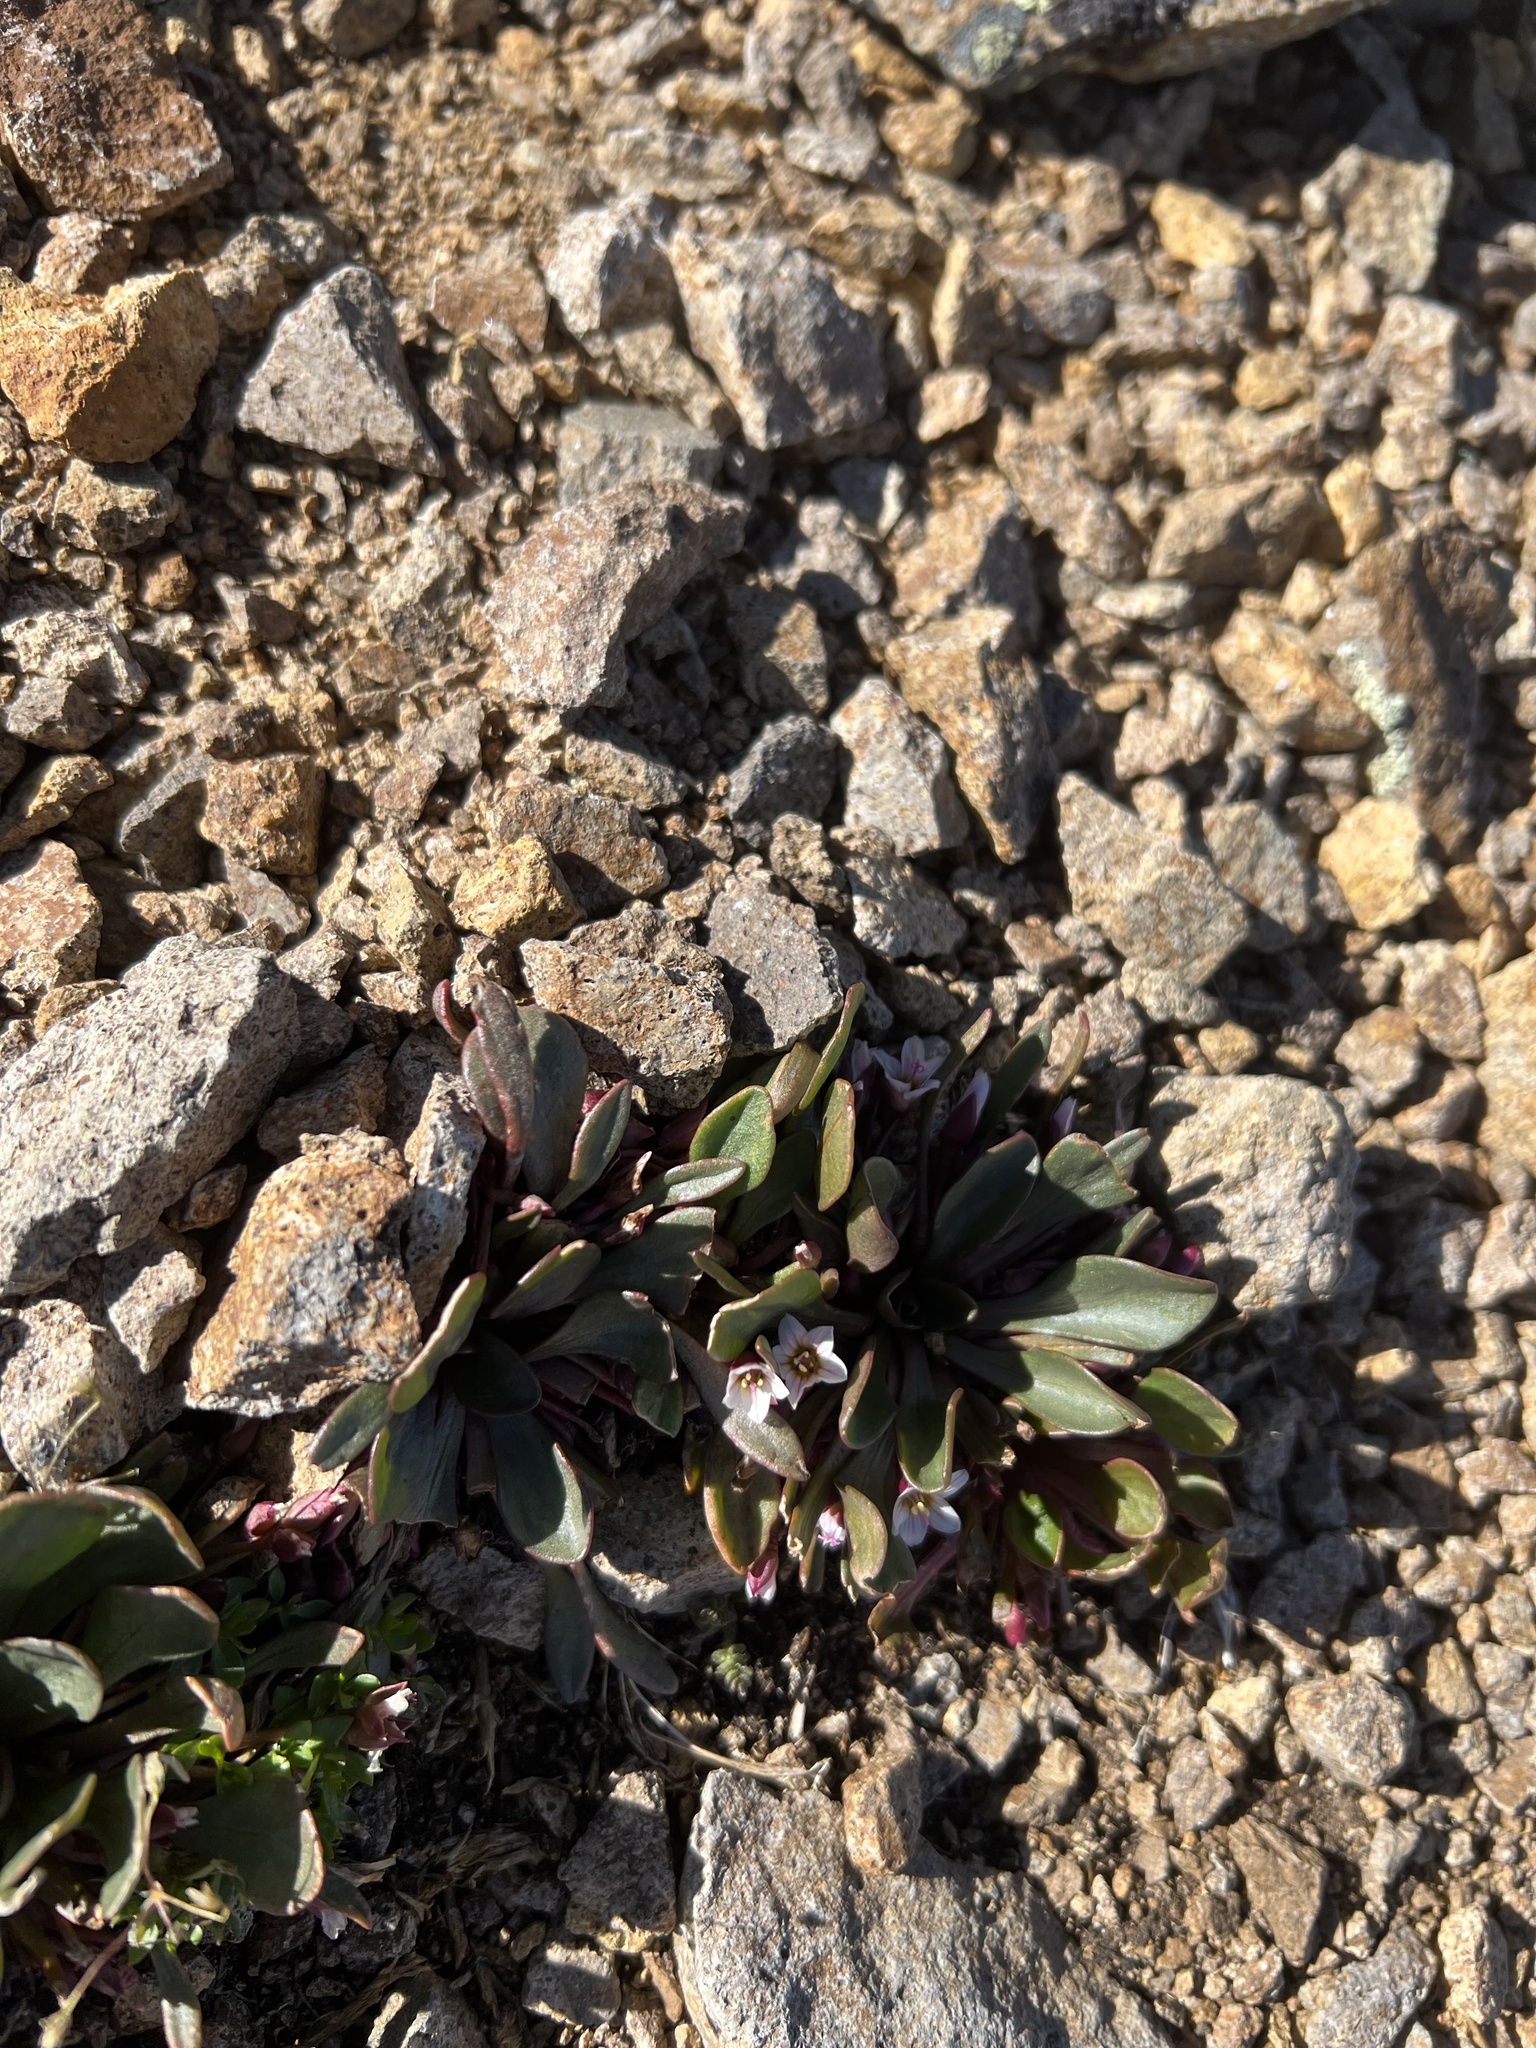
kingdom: Plantae
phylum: Tracheophyta
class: Magnoliopsida
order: Caryophyllales
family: Montiaceae
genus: Claytonia
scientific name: Claytonia megarhiza
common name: Alpine spring beauty
